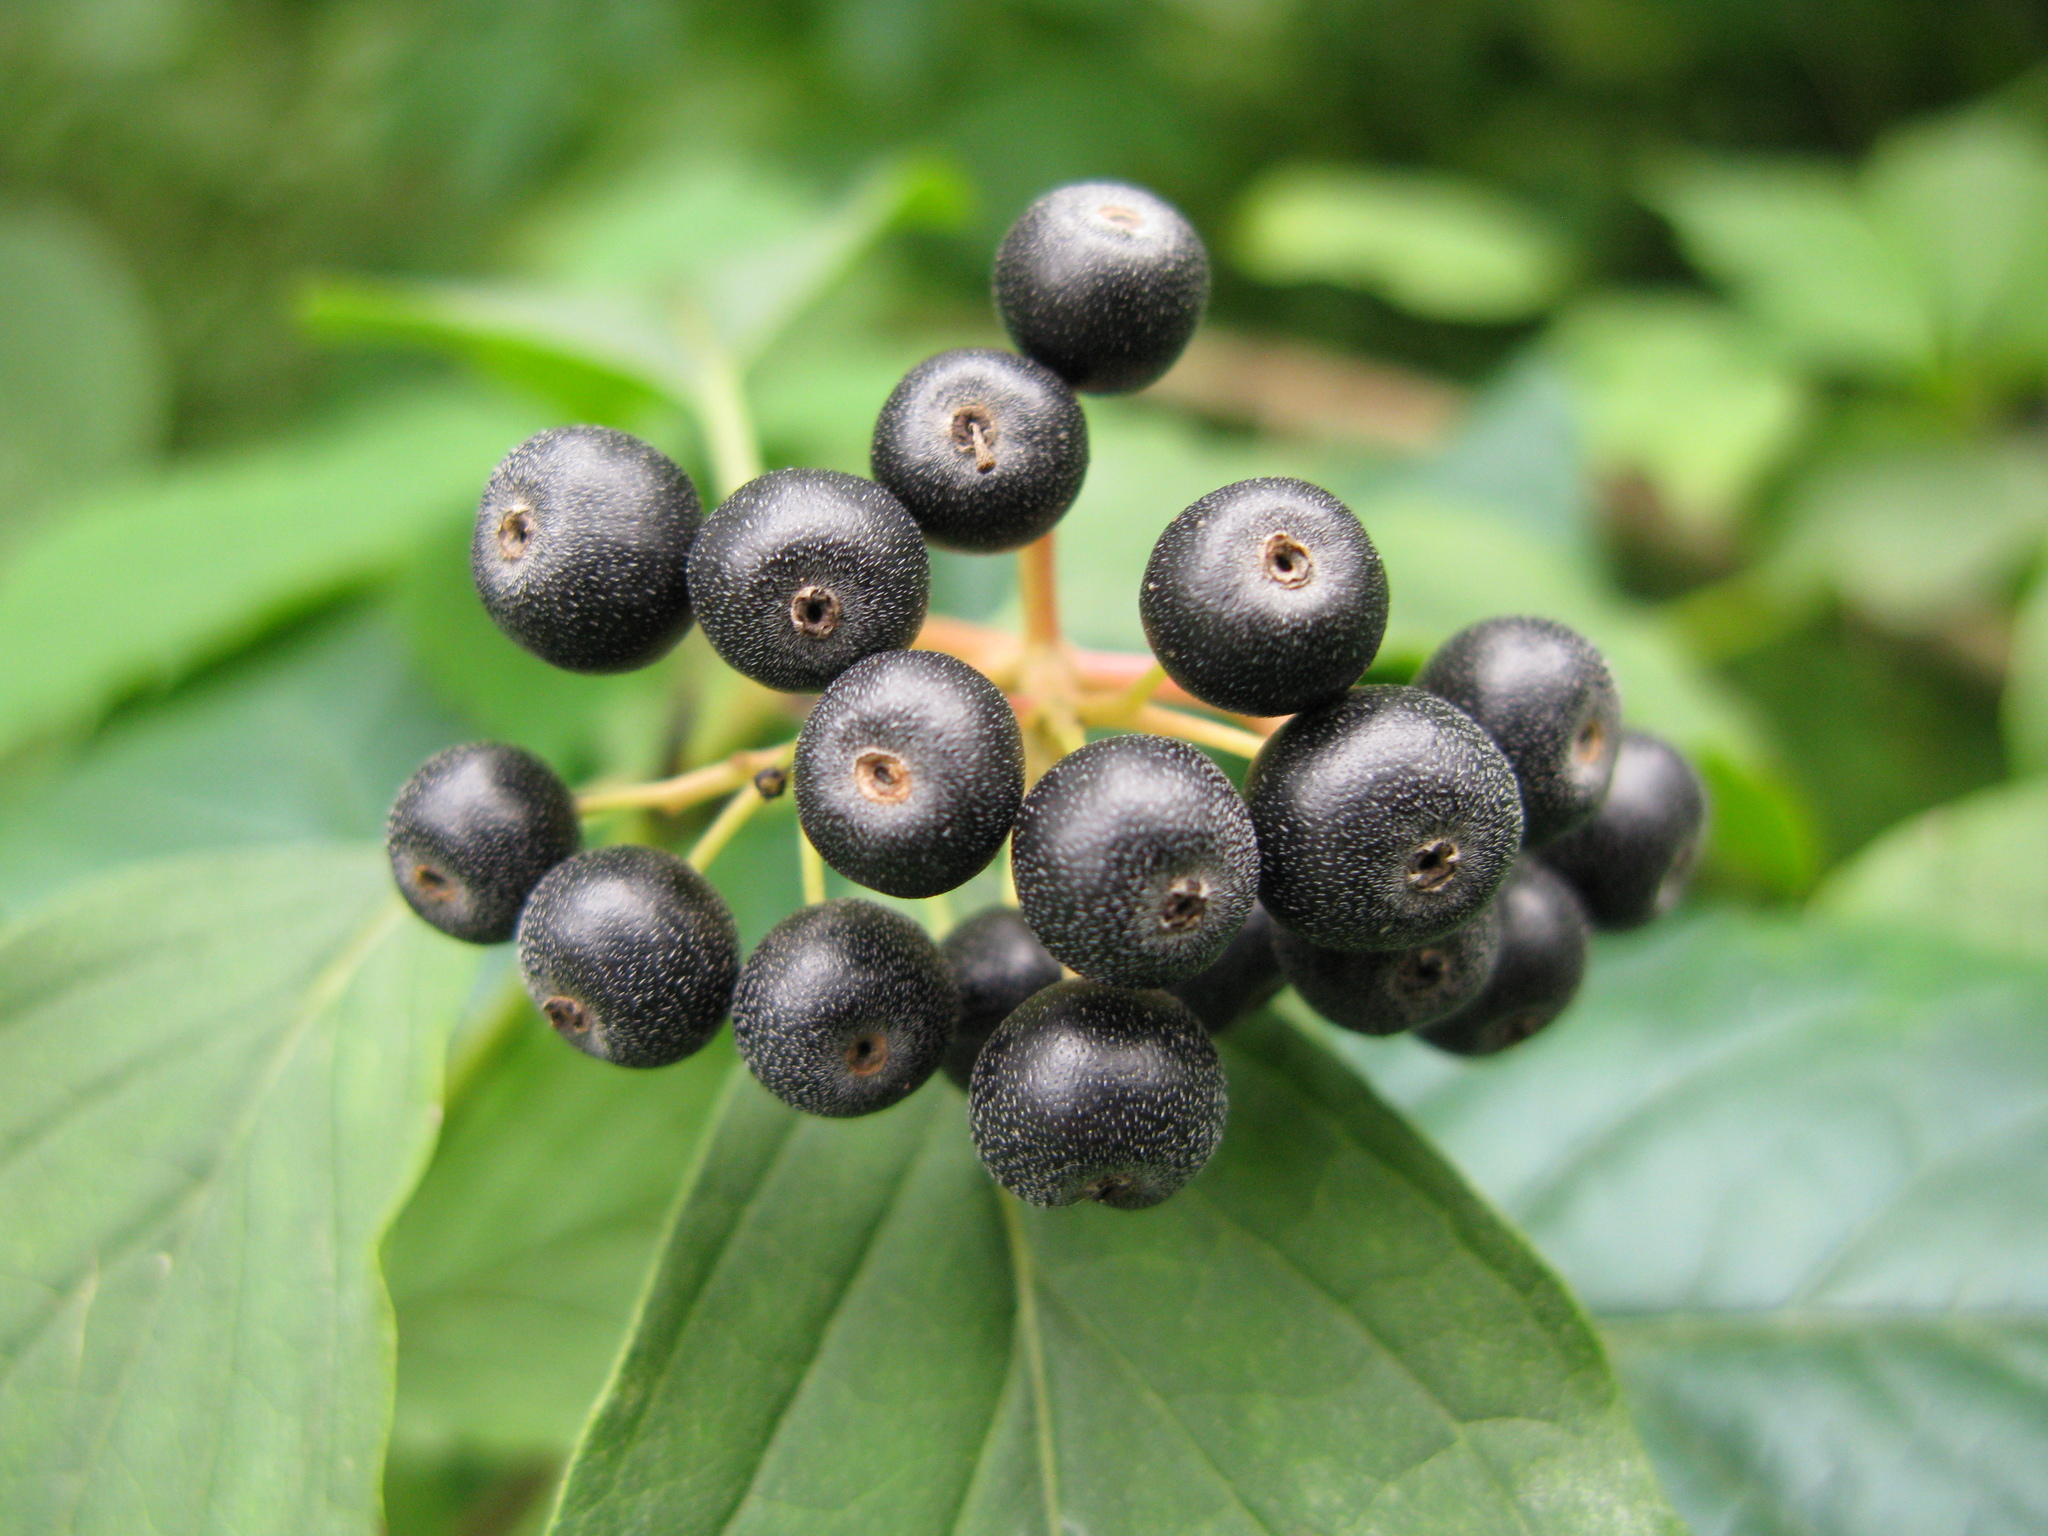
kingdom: Plantae
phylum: Tracheophyta
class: Magnoliopsida
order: Cornales
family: Cornaceae
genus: Cornus
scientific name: Cornus sanguinea
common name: Dogwood
